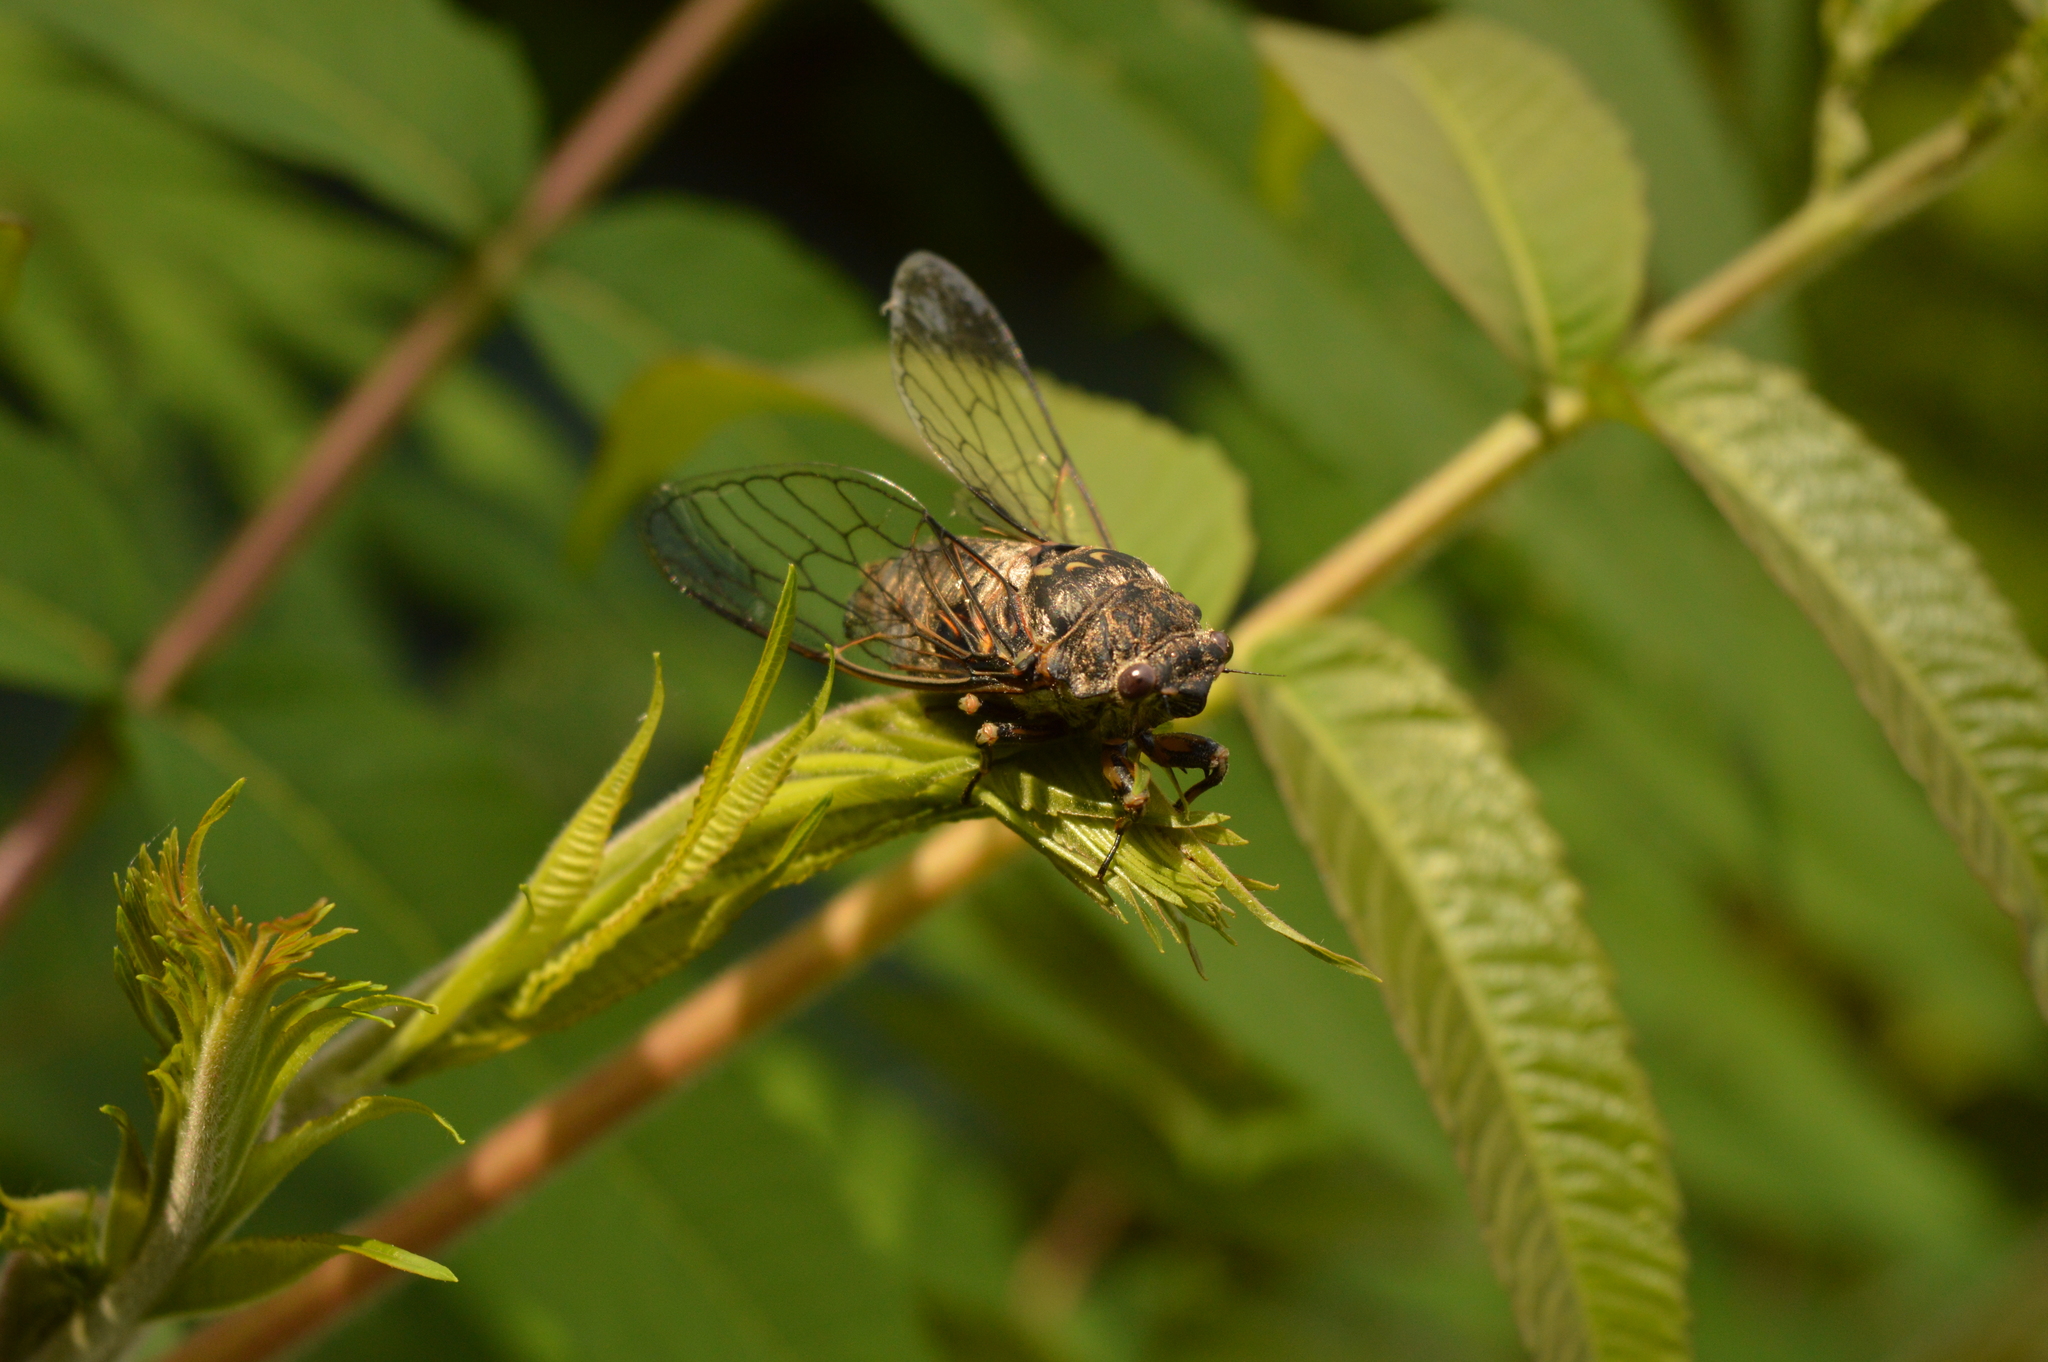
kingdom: Animalia
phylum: Arthropoda
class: Insecta
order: Hemiptera
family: Cicadidae
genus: Okanagana
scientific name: Okanagana canadensis
